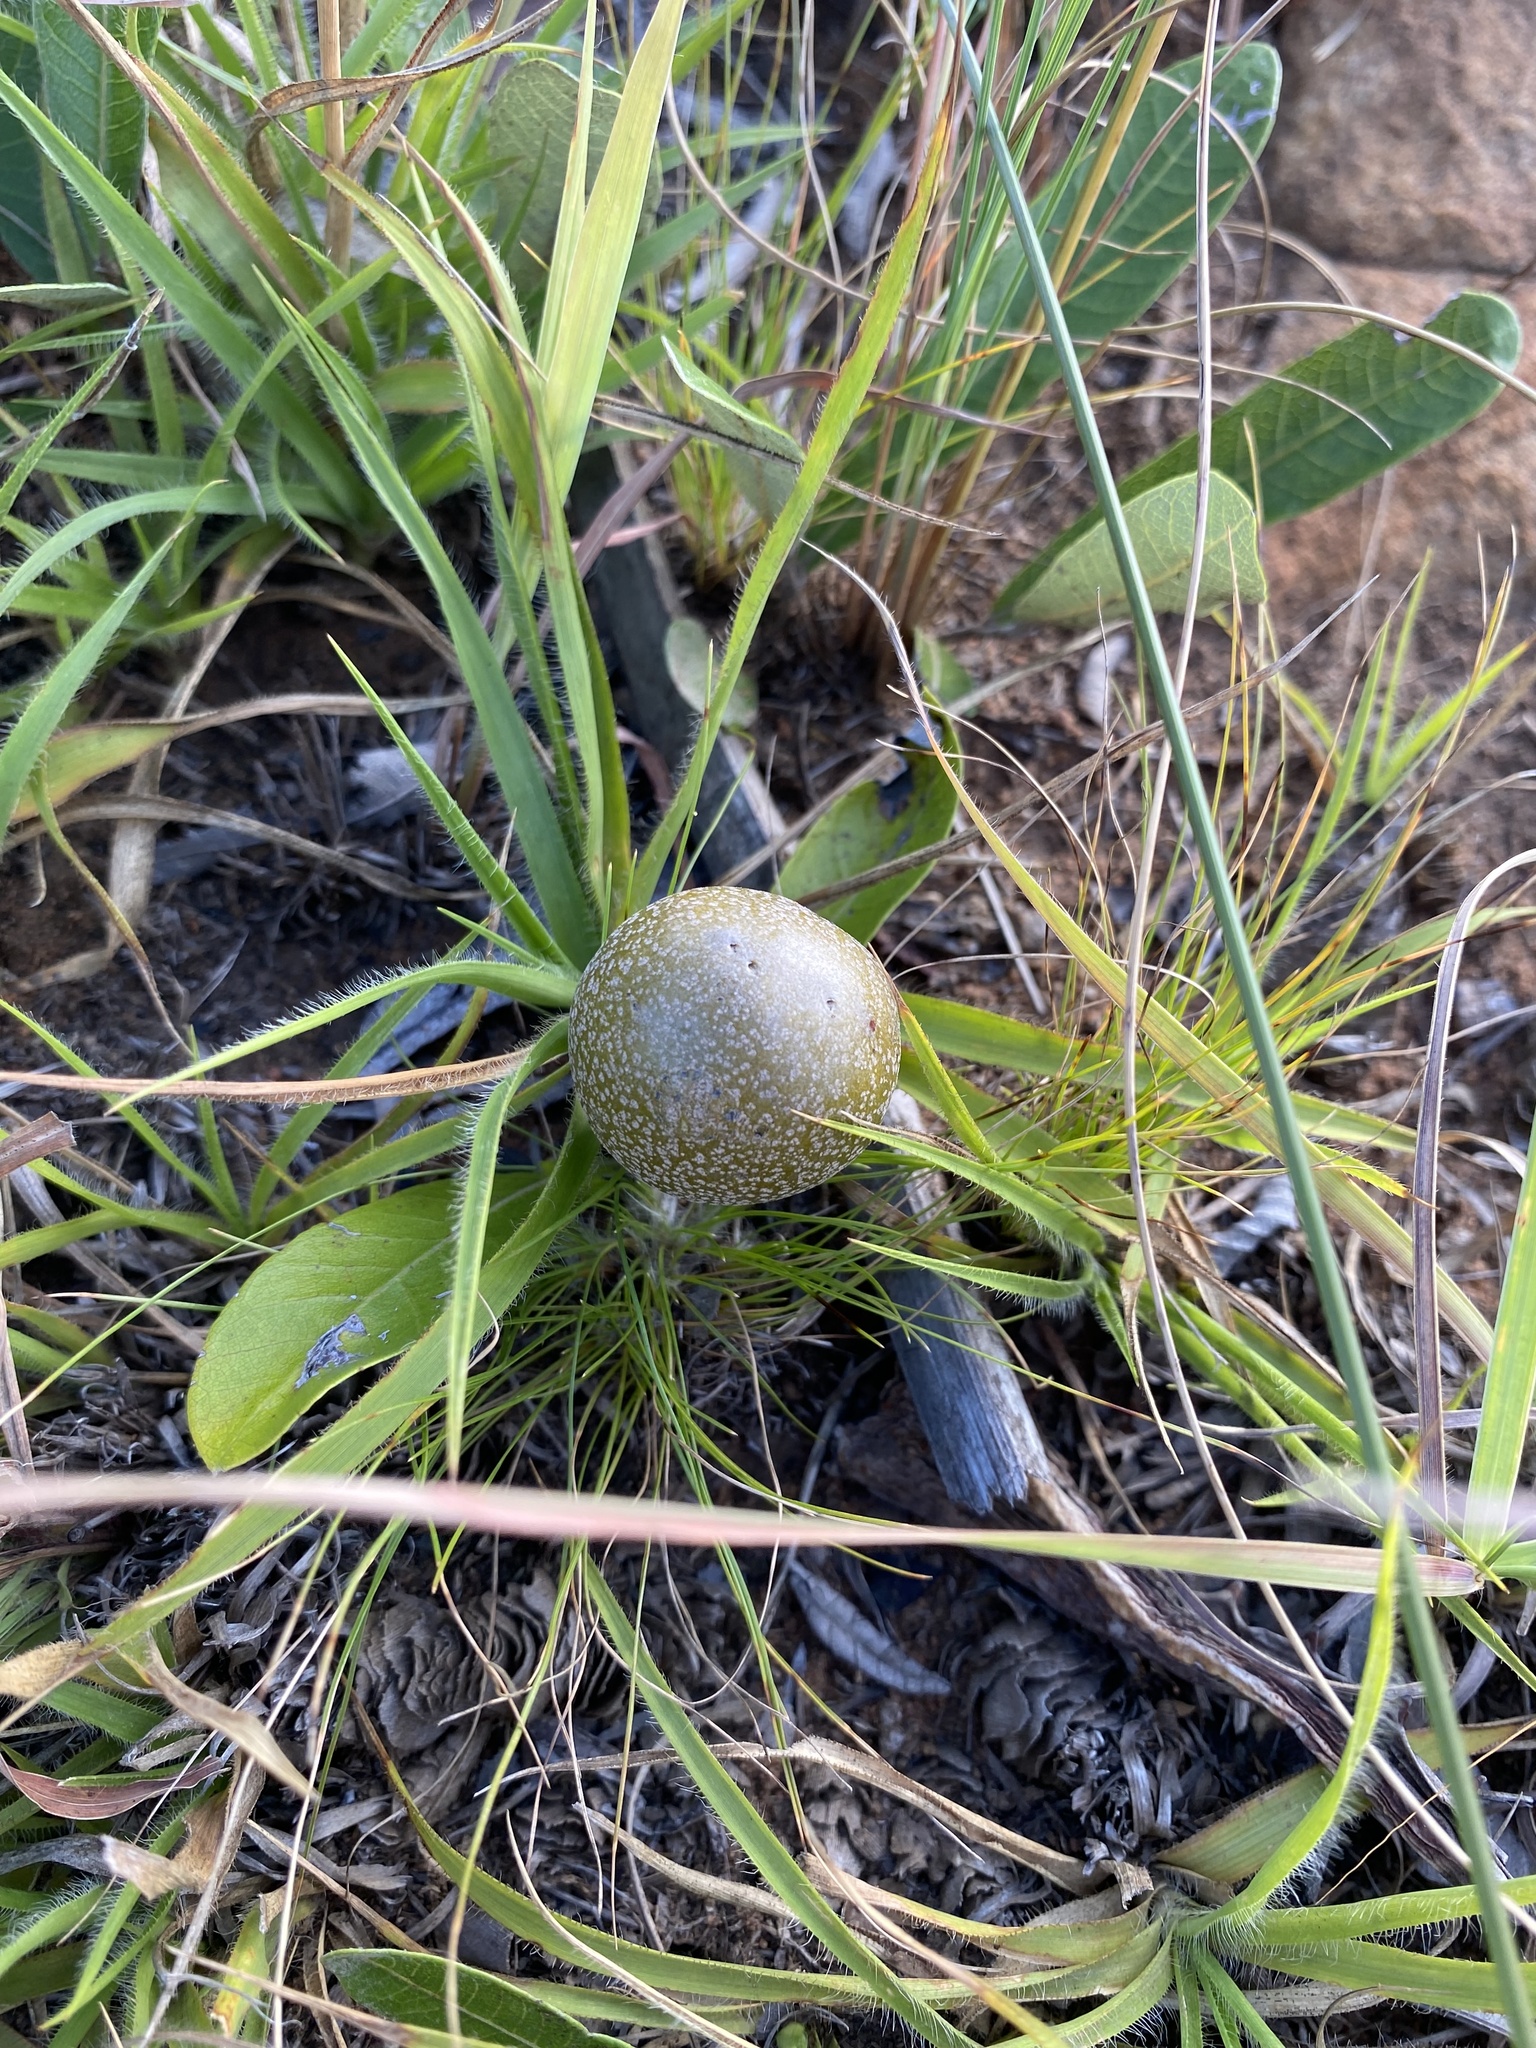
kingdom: Plantae
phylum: Tracheophyta
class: Magnoliopsida
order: Malpighiales
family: Chrysobalanaceae
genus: Parinari
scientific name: Parinari capensis
